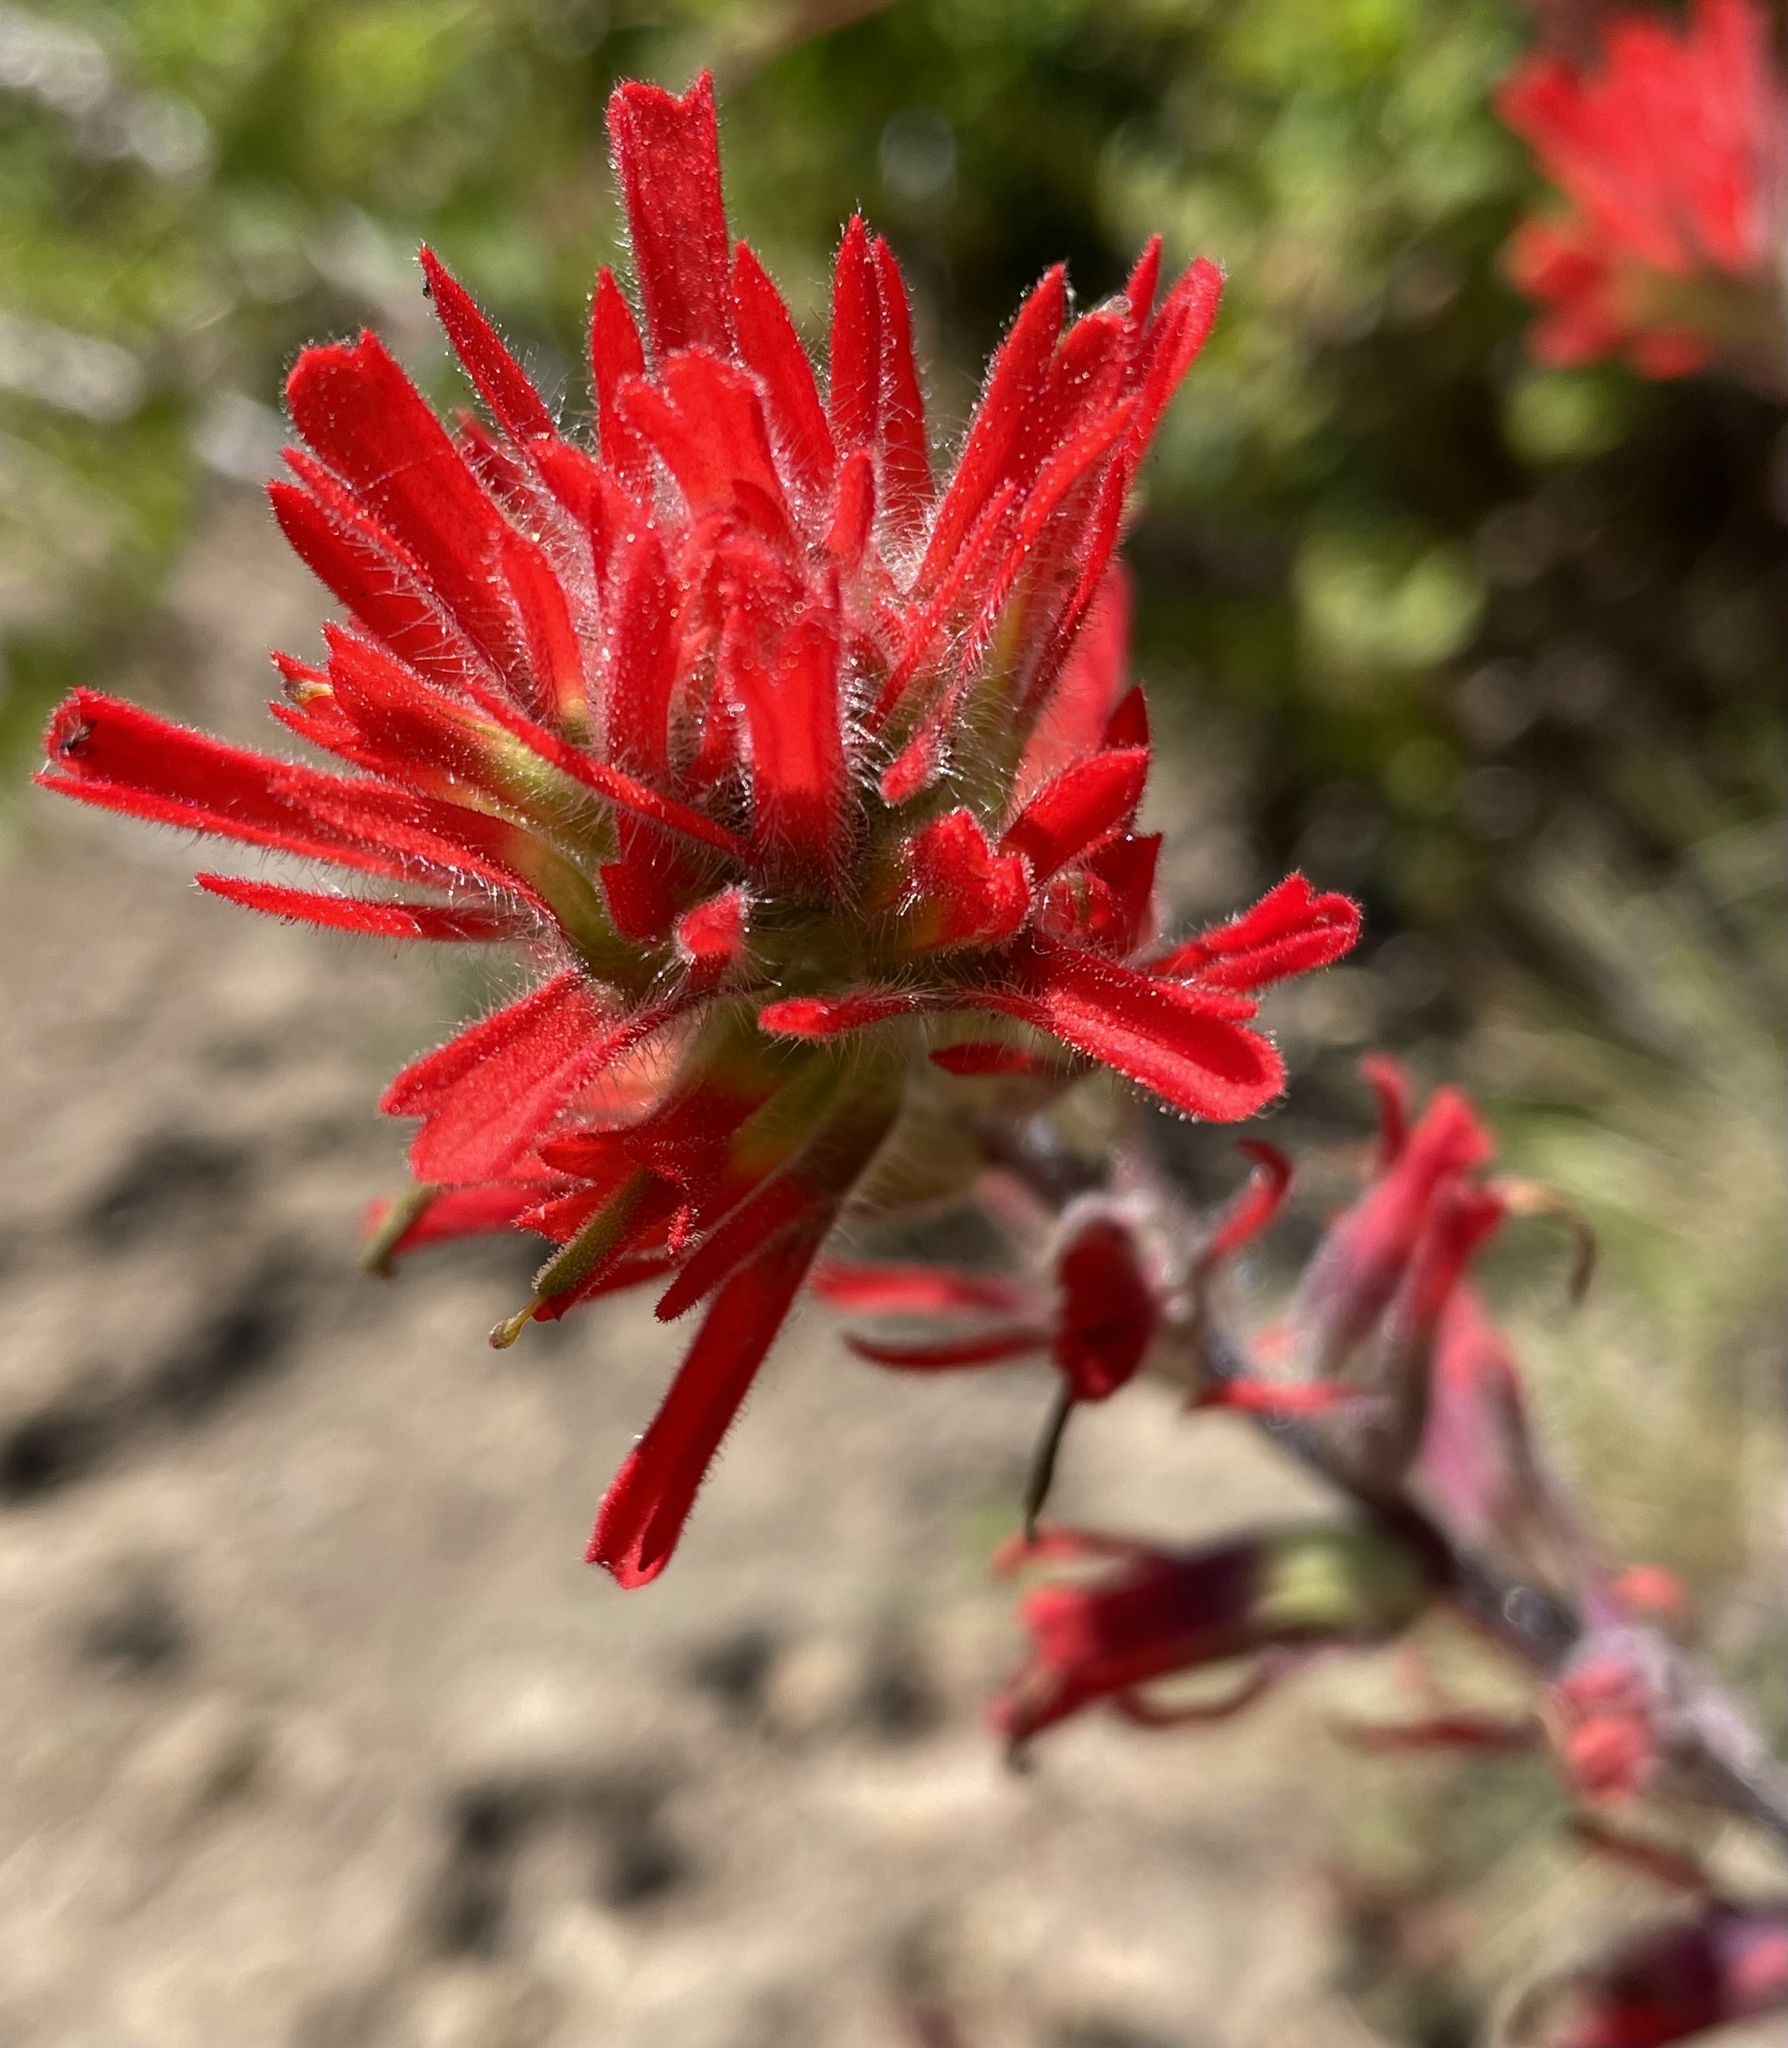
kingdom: Plantae
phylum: Tracheophyta
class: Magnoliopsida
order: Lamiales
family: Orobanchaceae
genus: Castilleja
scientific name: Castilleja affinis
